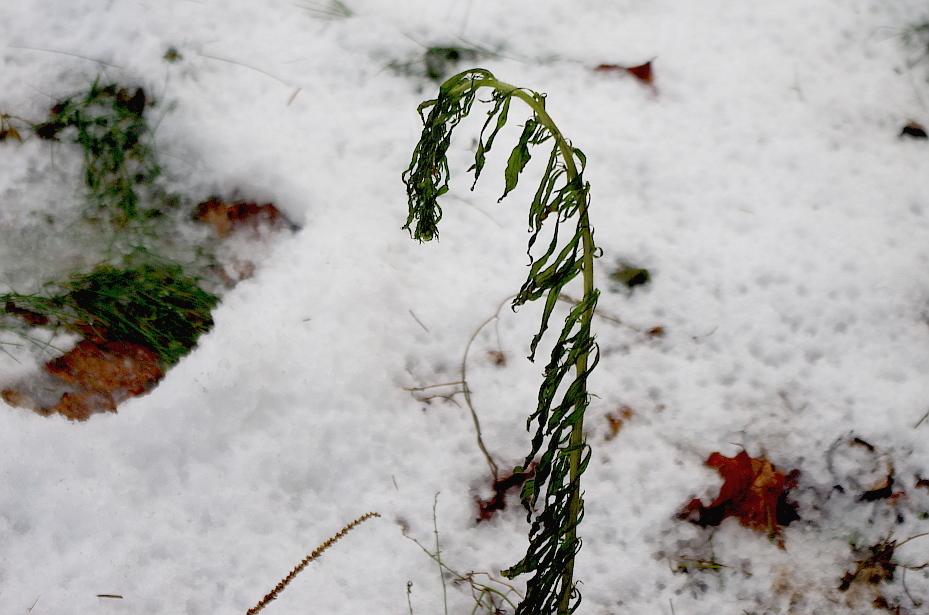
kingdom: Plantae
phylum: Tracheophyta
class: Magnoliopsida
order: Asterales
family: Asteraceae
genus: Erigeron
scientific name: Erigeron canadensis
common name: Canadian fleabane
